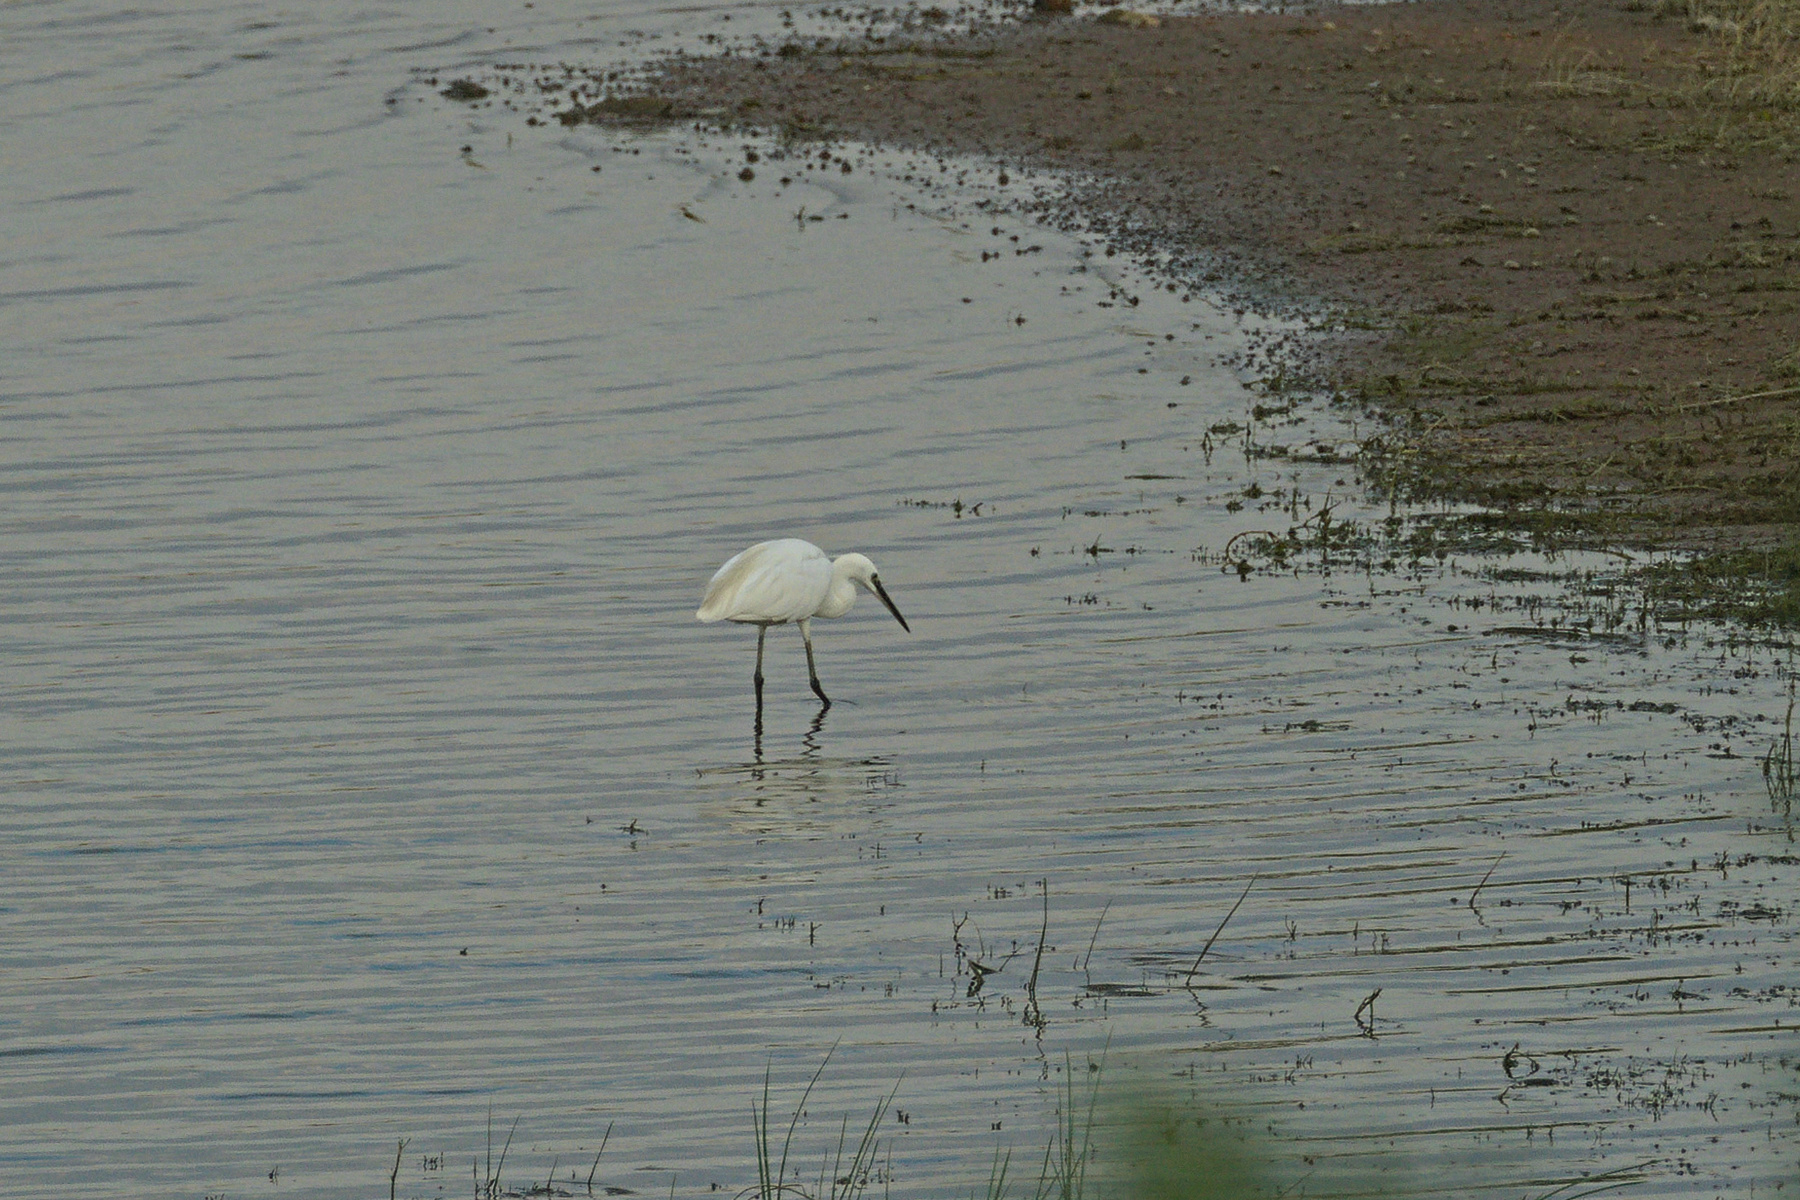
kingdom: Animalia
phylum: Chordata
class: Aves
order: Pelecaniformes
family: Ardeidae
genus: Egretta
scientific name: Egretta garzetta
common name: Little egret
